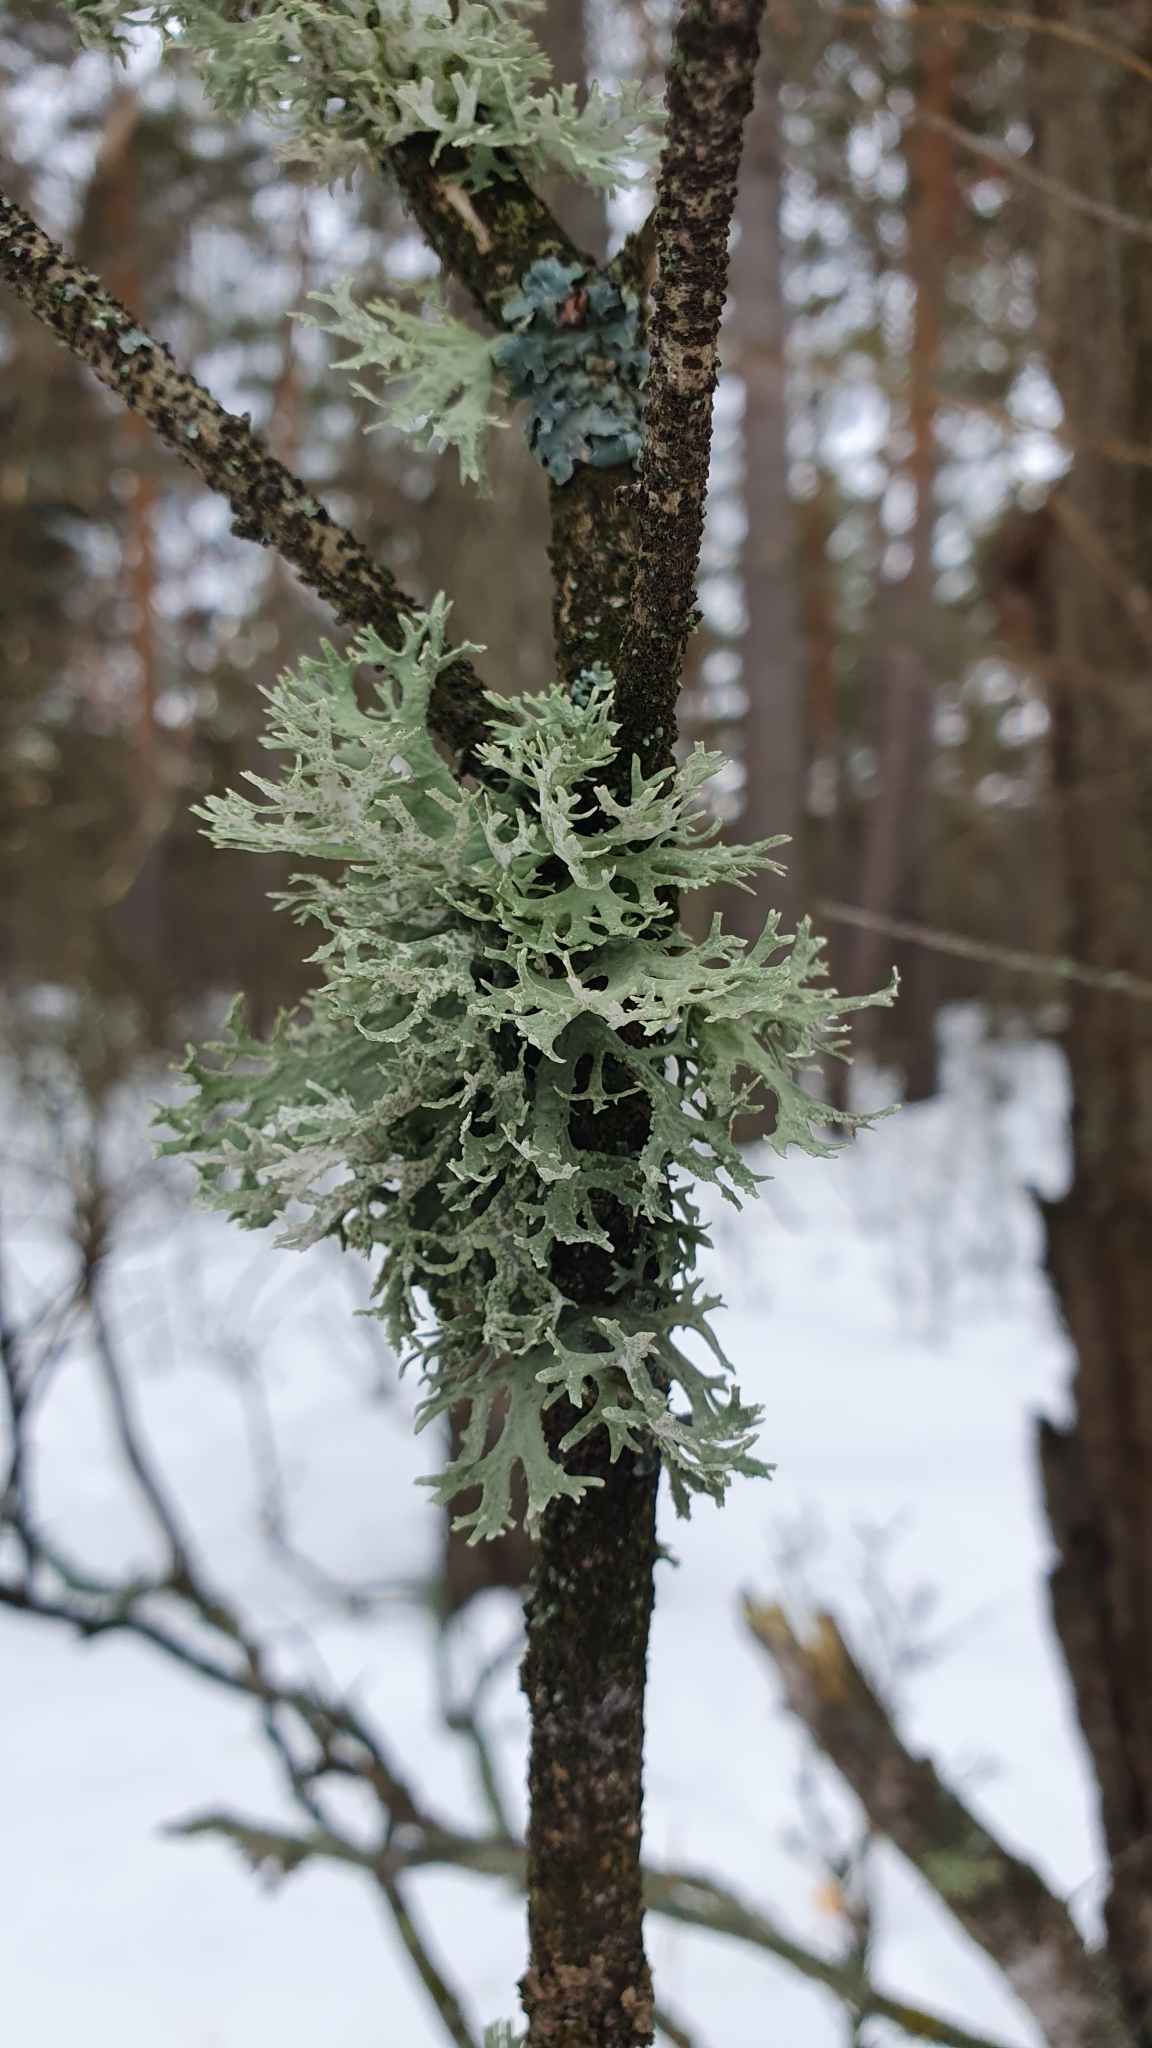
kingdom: Fungi
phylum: Ascomycota
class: Lecanoromycetes
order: Lecanorales
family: Parmeliaceae
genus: Evernia
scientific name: Evernia prunastri
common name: Oak moss
